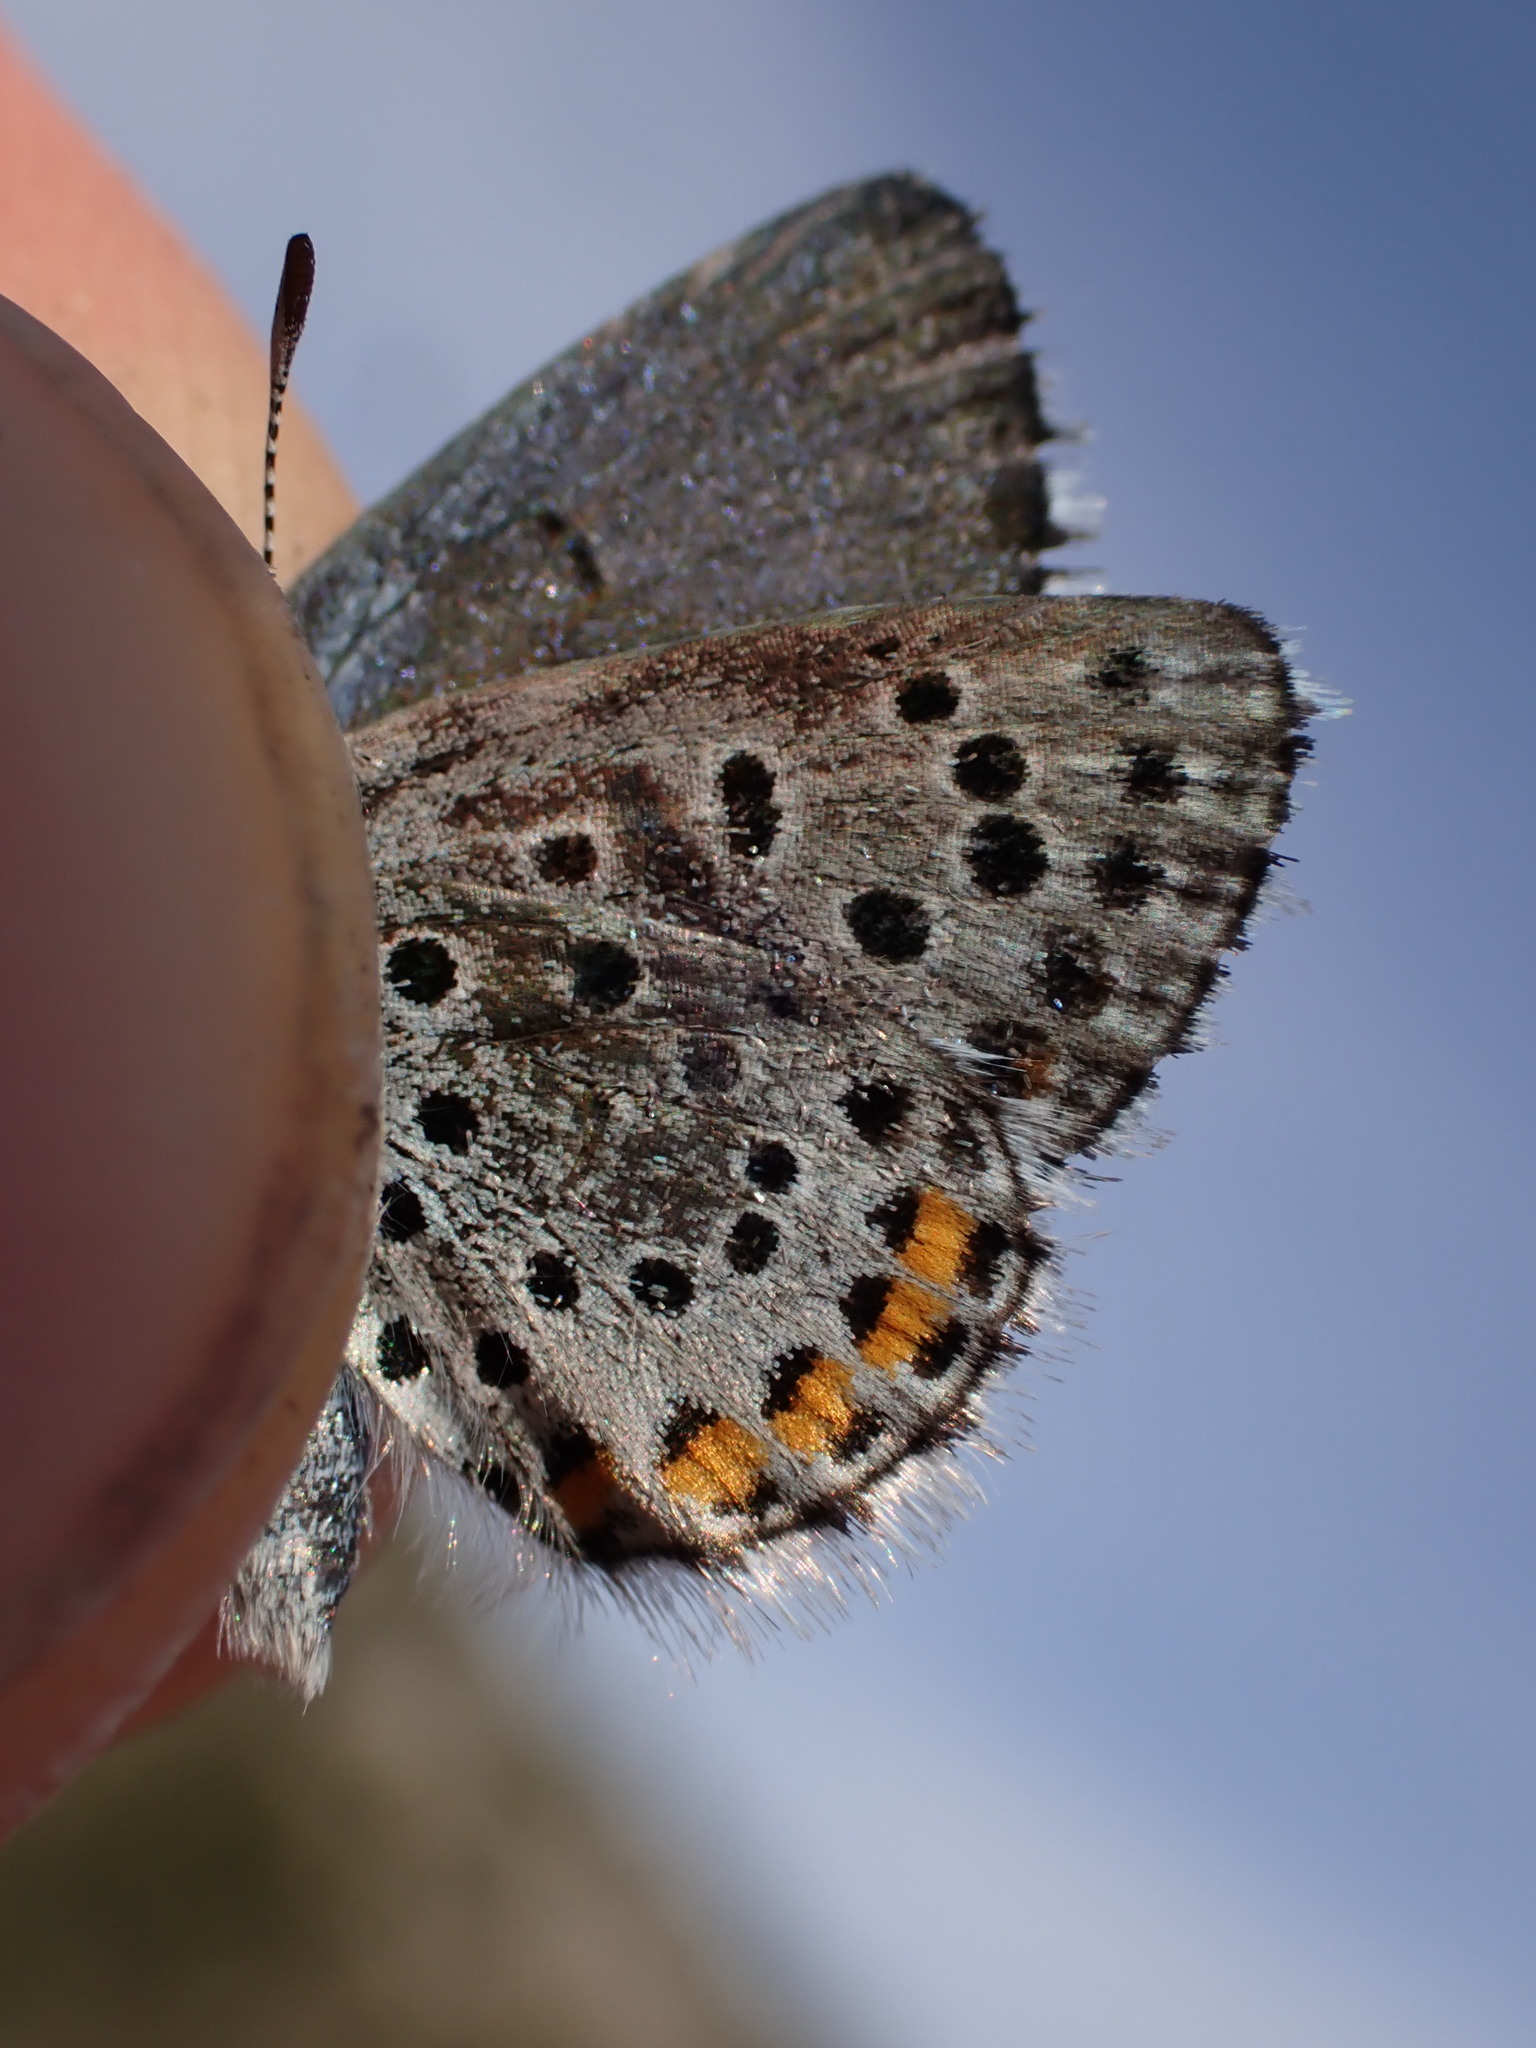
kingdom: Animalia
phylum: Arthropoda
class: Insecta
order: Lepidoptera
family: Lycaenidae
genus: Pseudophilotes
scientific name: Pseudophilotes baton
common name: Baton blue
